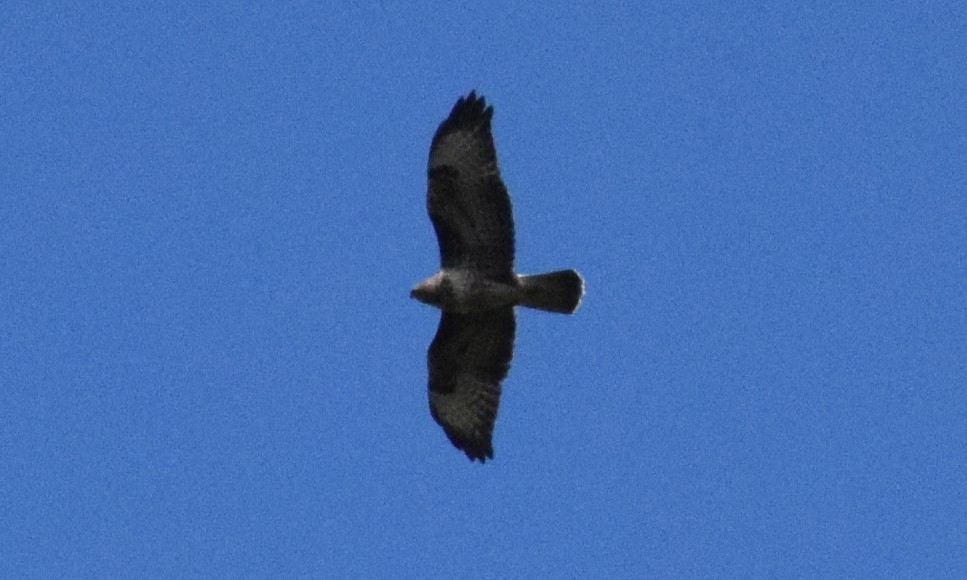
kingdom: Animalia
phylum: Chordata
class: Aves
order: Accipitriformes
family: Accipitridae
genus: Buteo
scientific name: Buteo buteo
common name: Common buzzard
